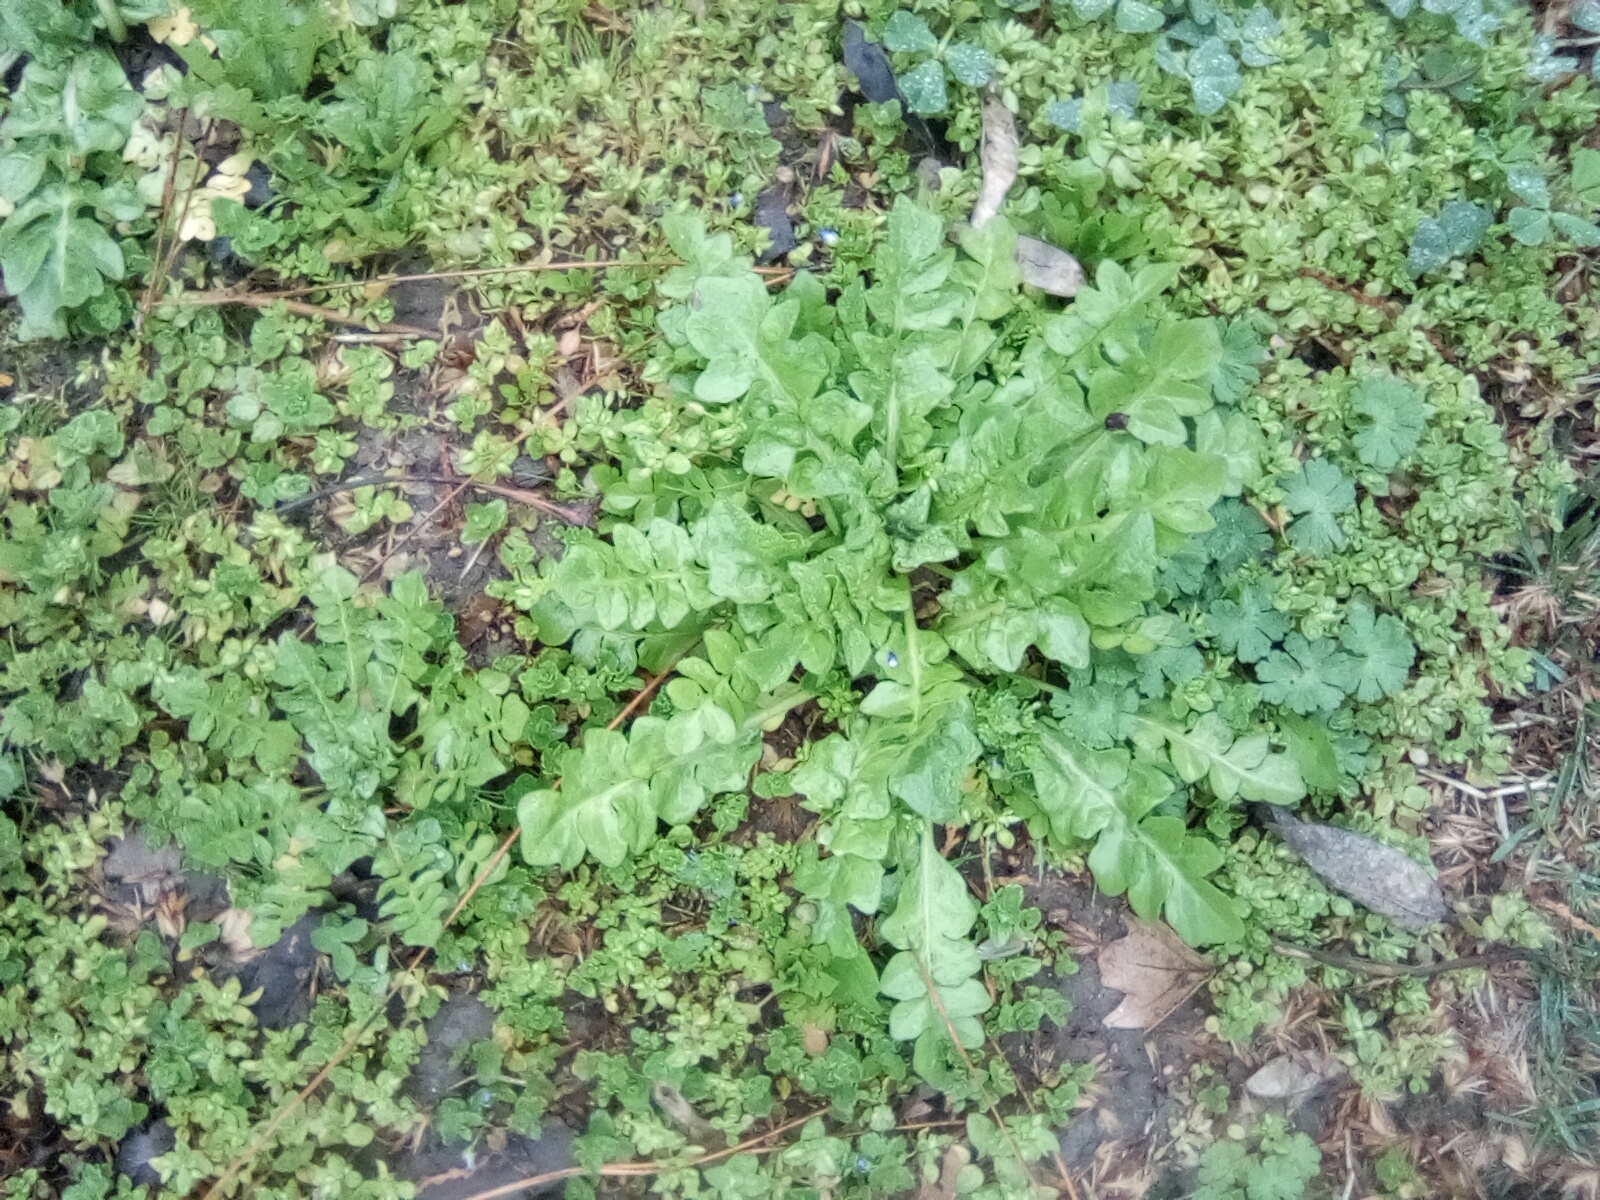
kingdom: Plantae
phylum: Tracheophyta
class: Magnoliopsida
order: Brassicales
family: Brassicaceae
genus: Capsella
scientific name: Capsella bursa-pastoris
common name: Shepherd's purse
